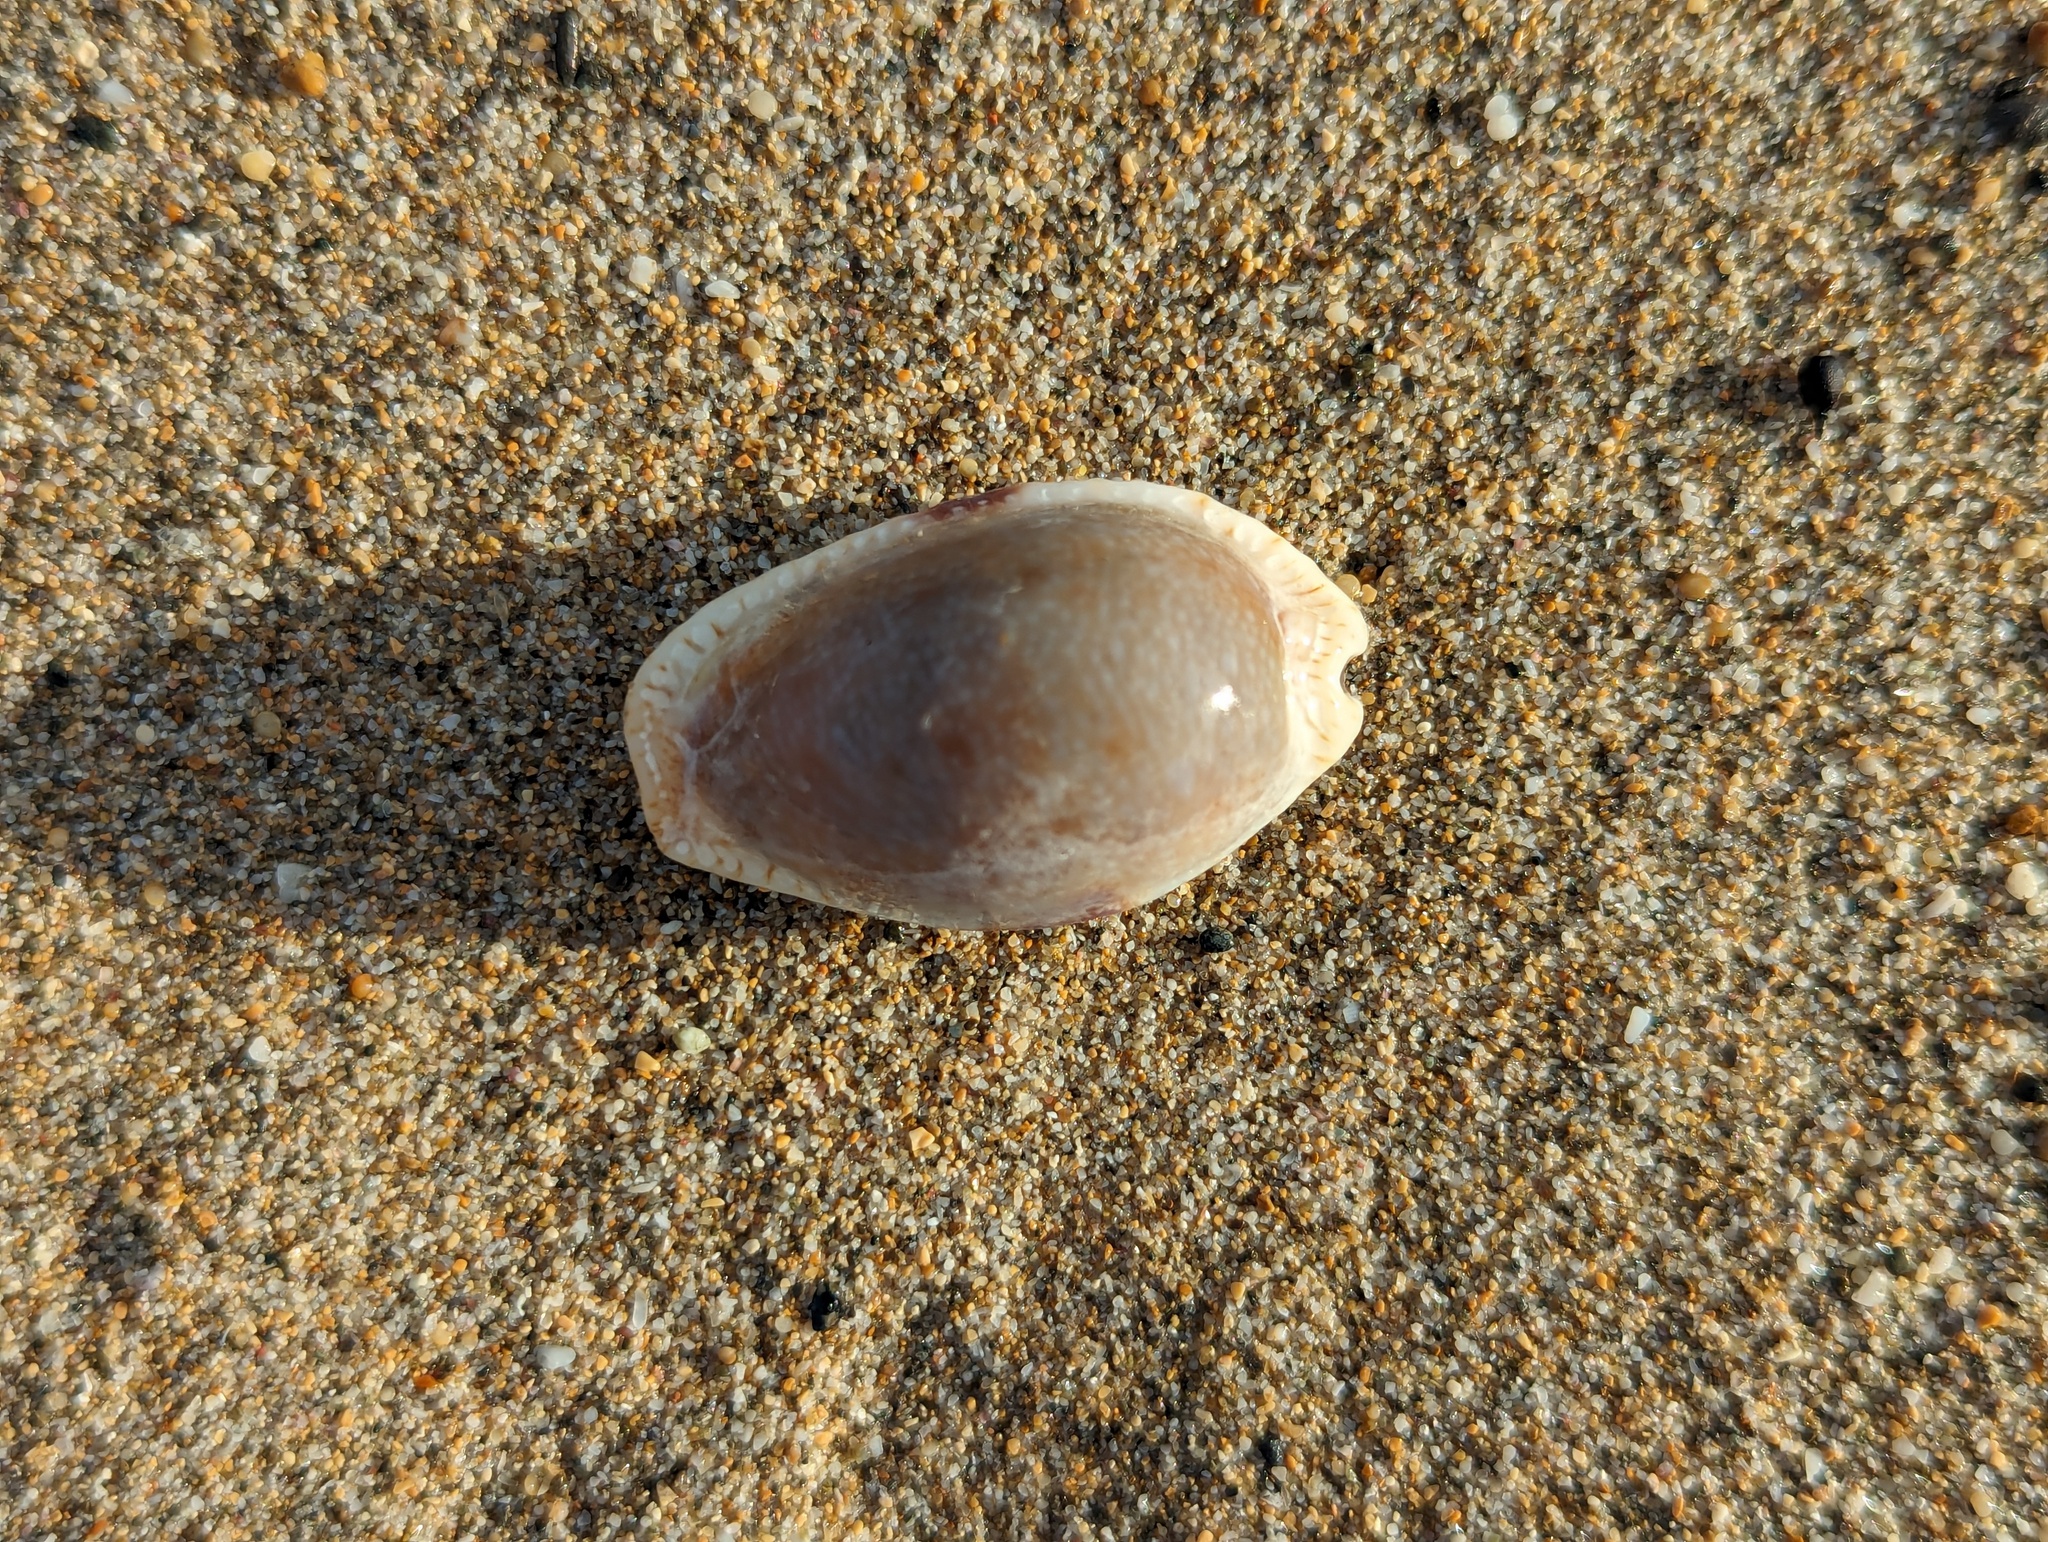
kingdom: Animalia
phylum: Mollusca
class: Gastropoda
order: Littorinimorpha
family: Cypraeidae
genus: Naria
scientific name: Naria erosa
